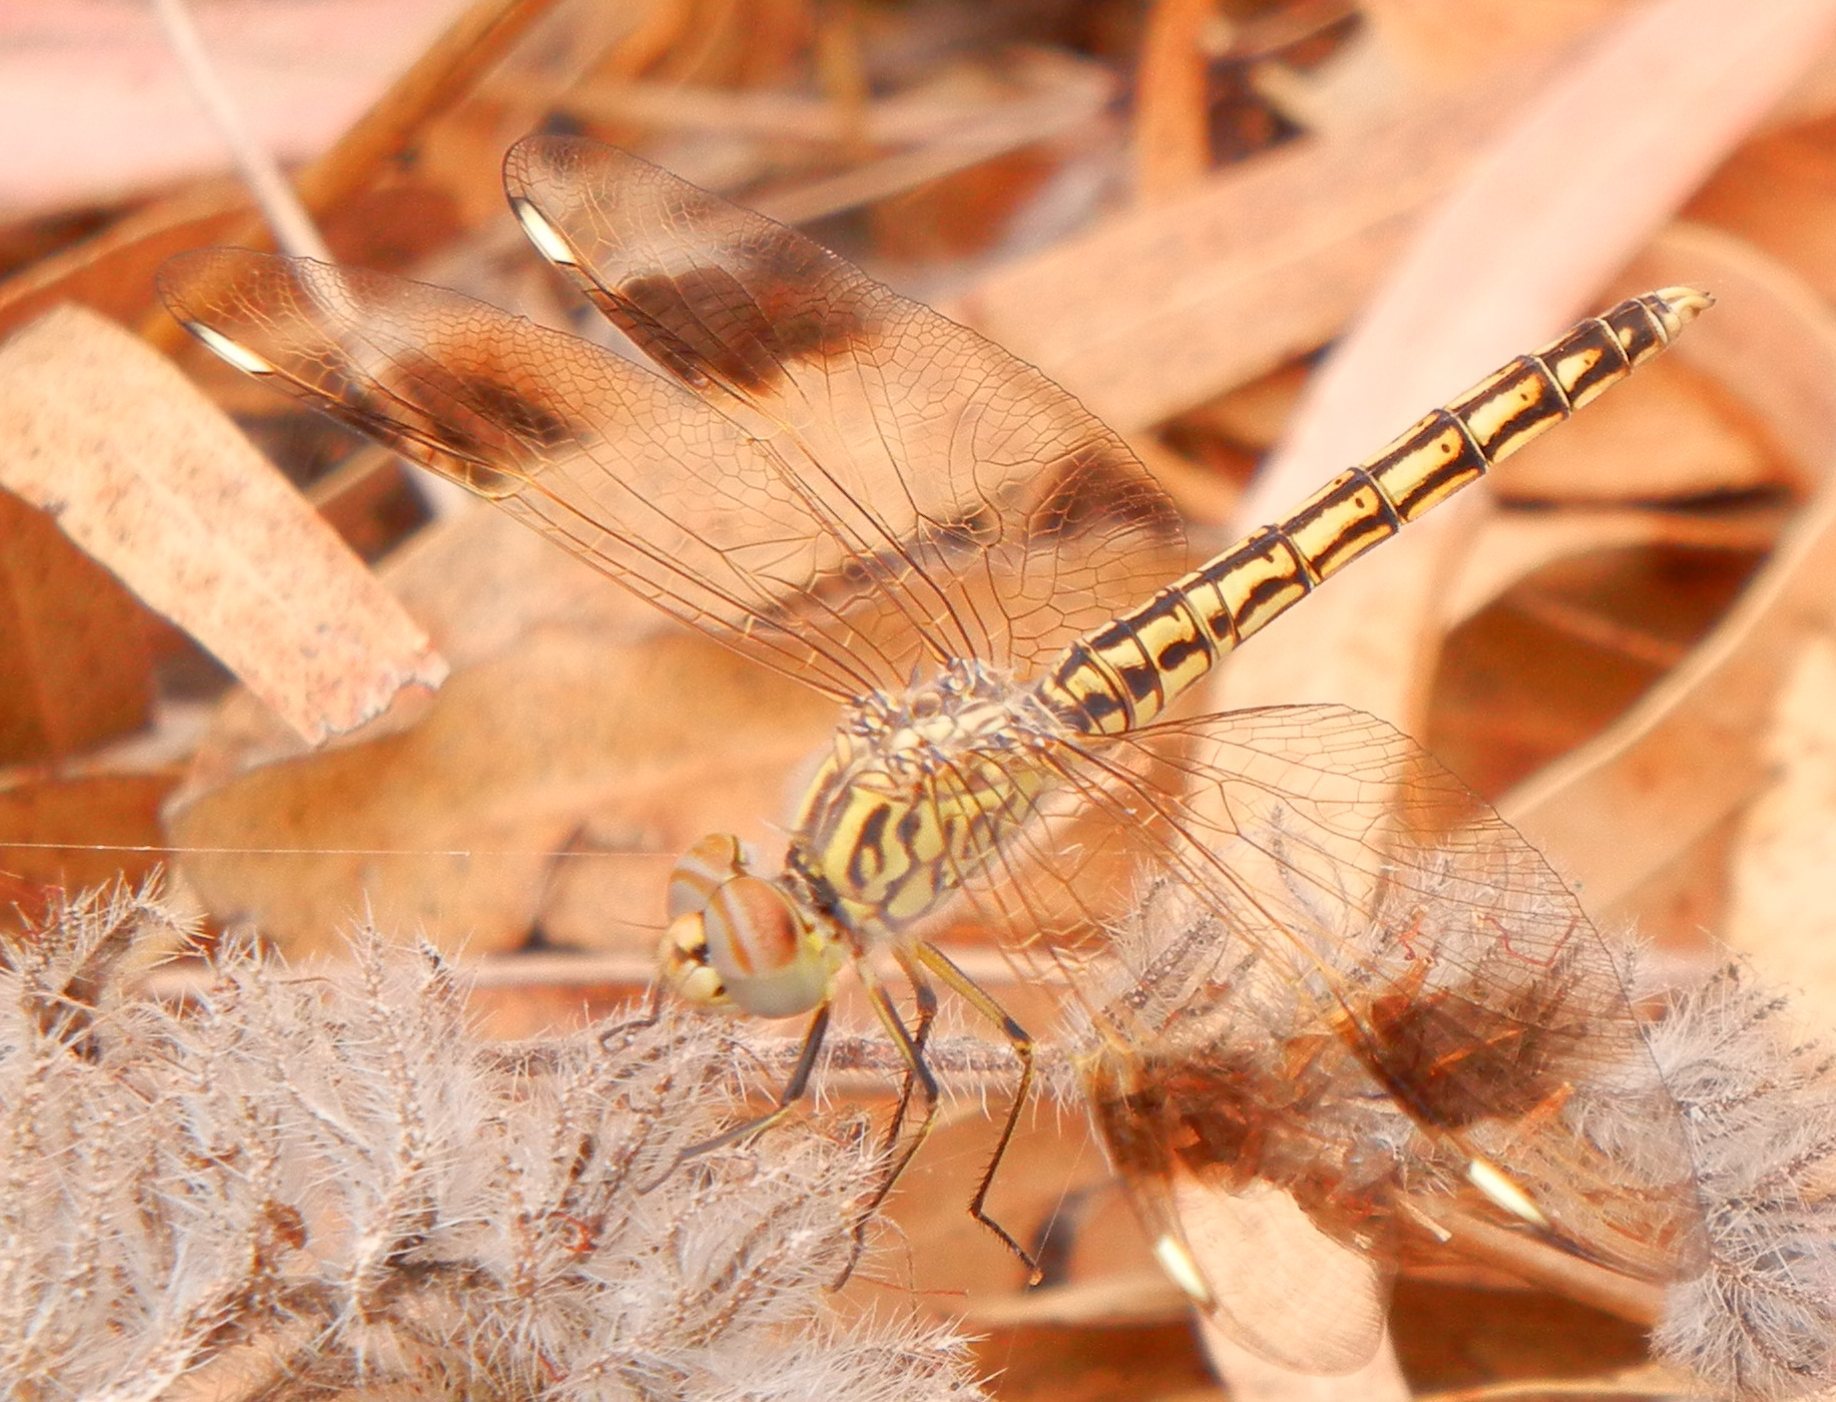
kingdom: Animalia
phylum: Arthropoda
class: Insecta
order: Odonata
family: Libellulidae
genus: Brachythemis
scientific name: Brachythemis impartita
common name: Banded groundling
